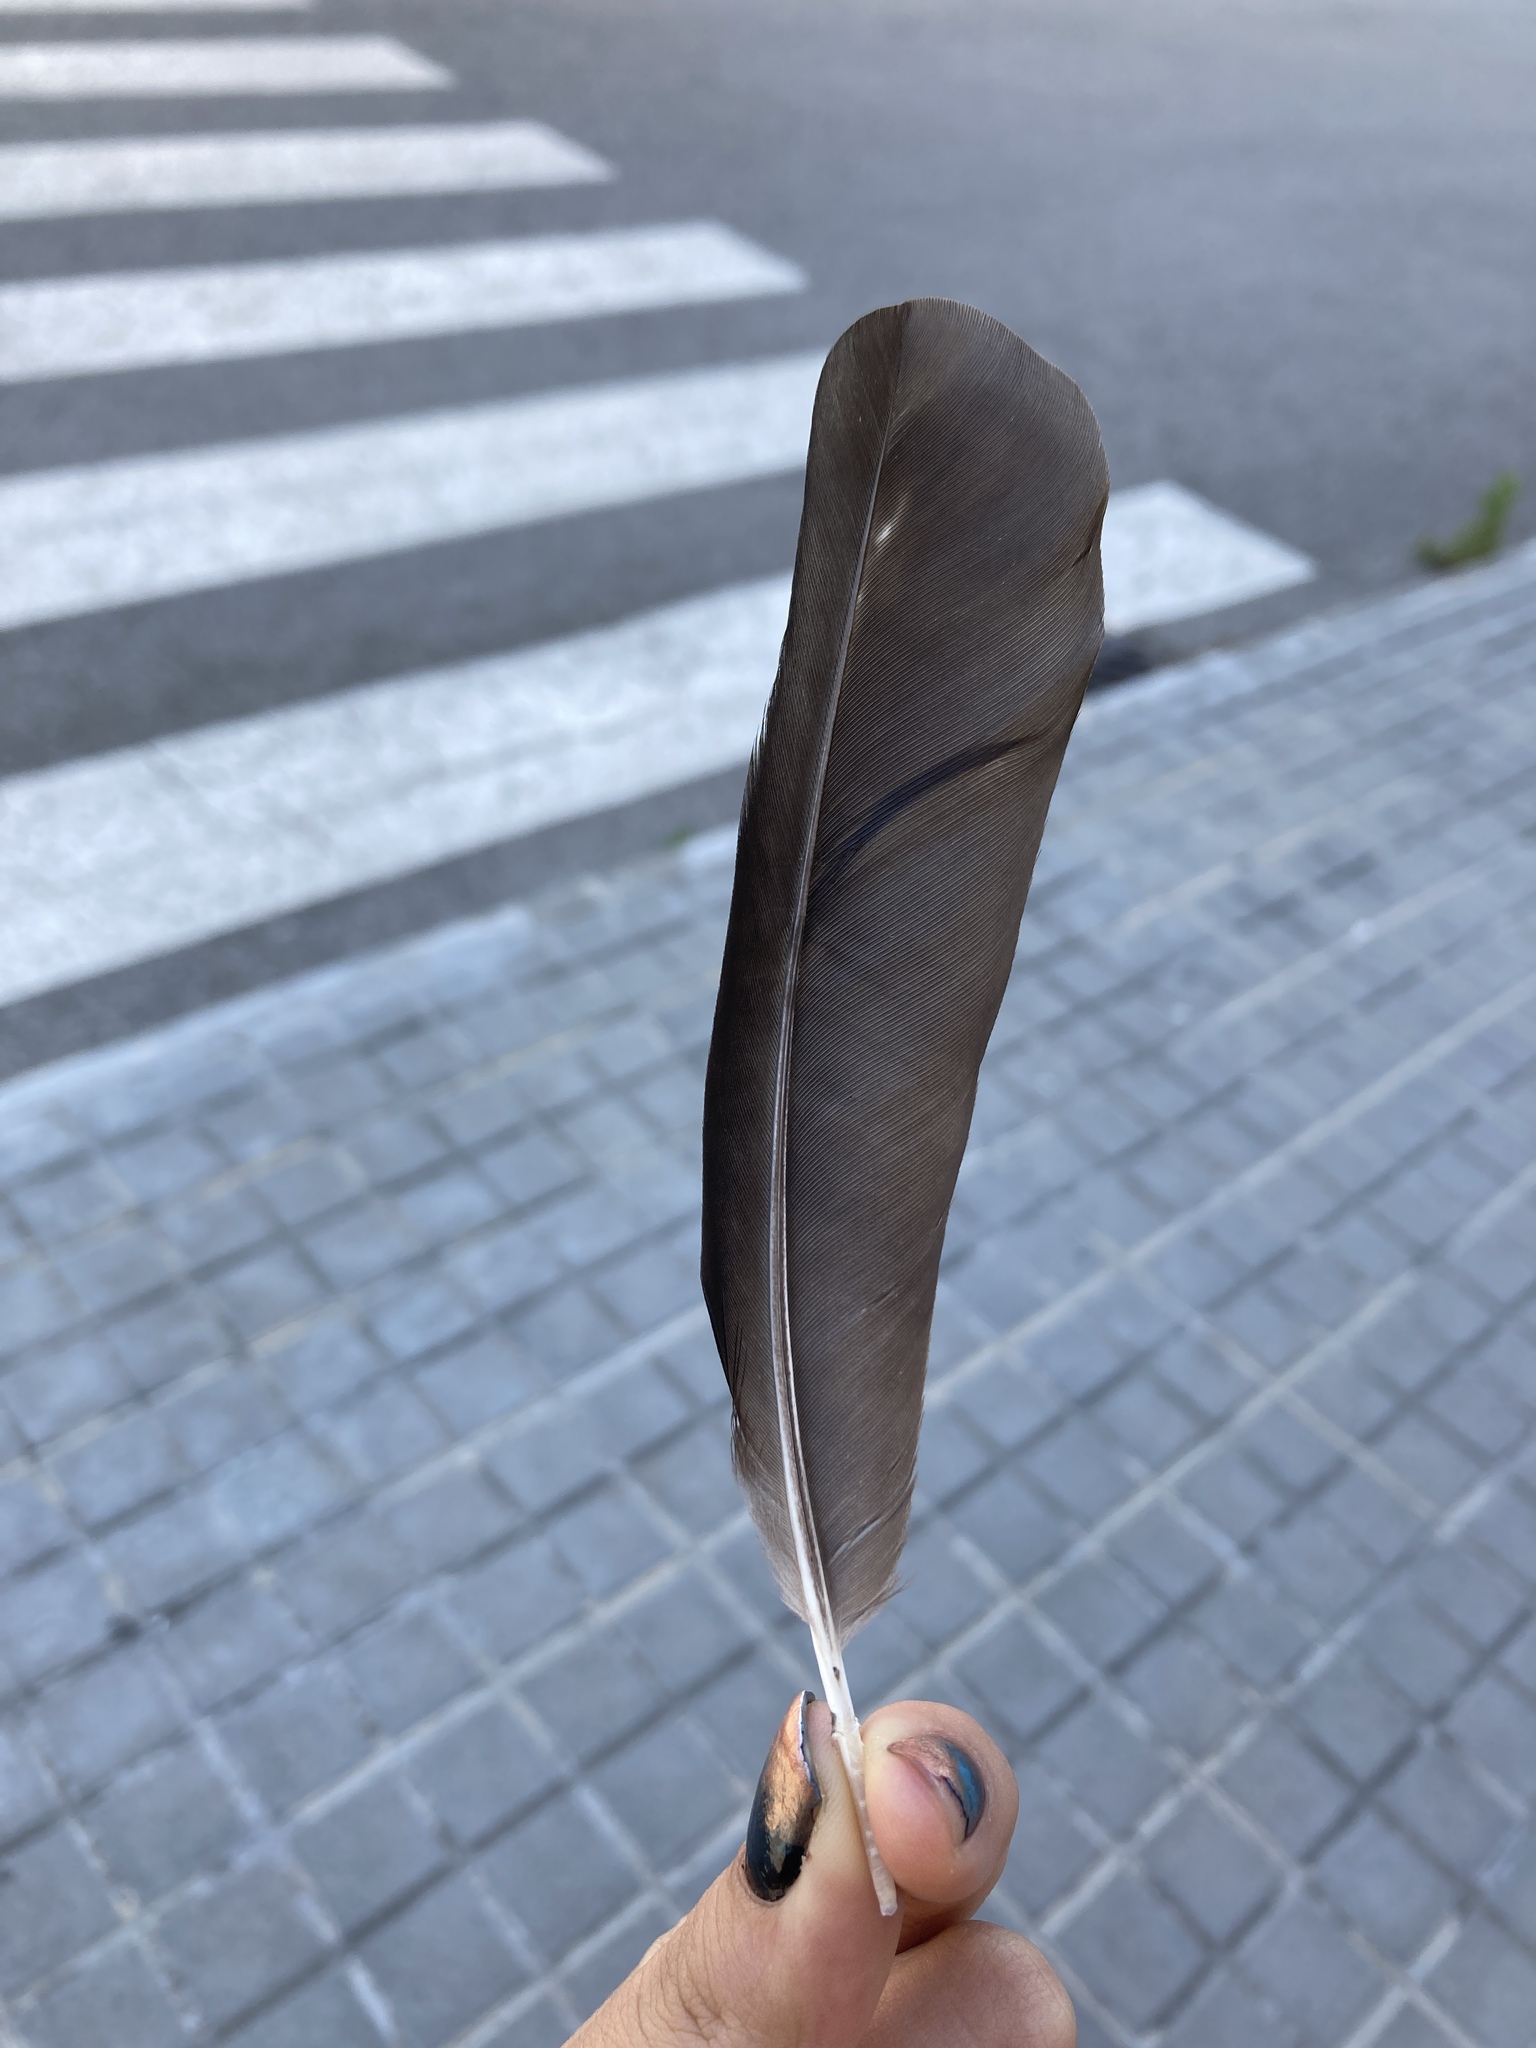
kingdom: Animalia
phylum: Chordata
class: Aves
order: Passeriformes
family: Corvidae
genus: Pica
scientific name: Pica pica
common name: Eurasian magpie
